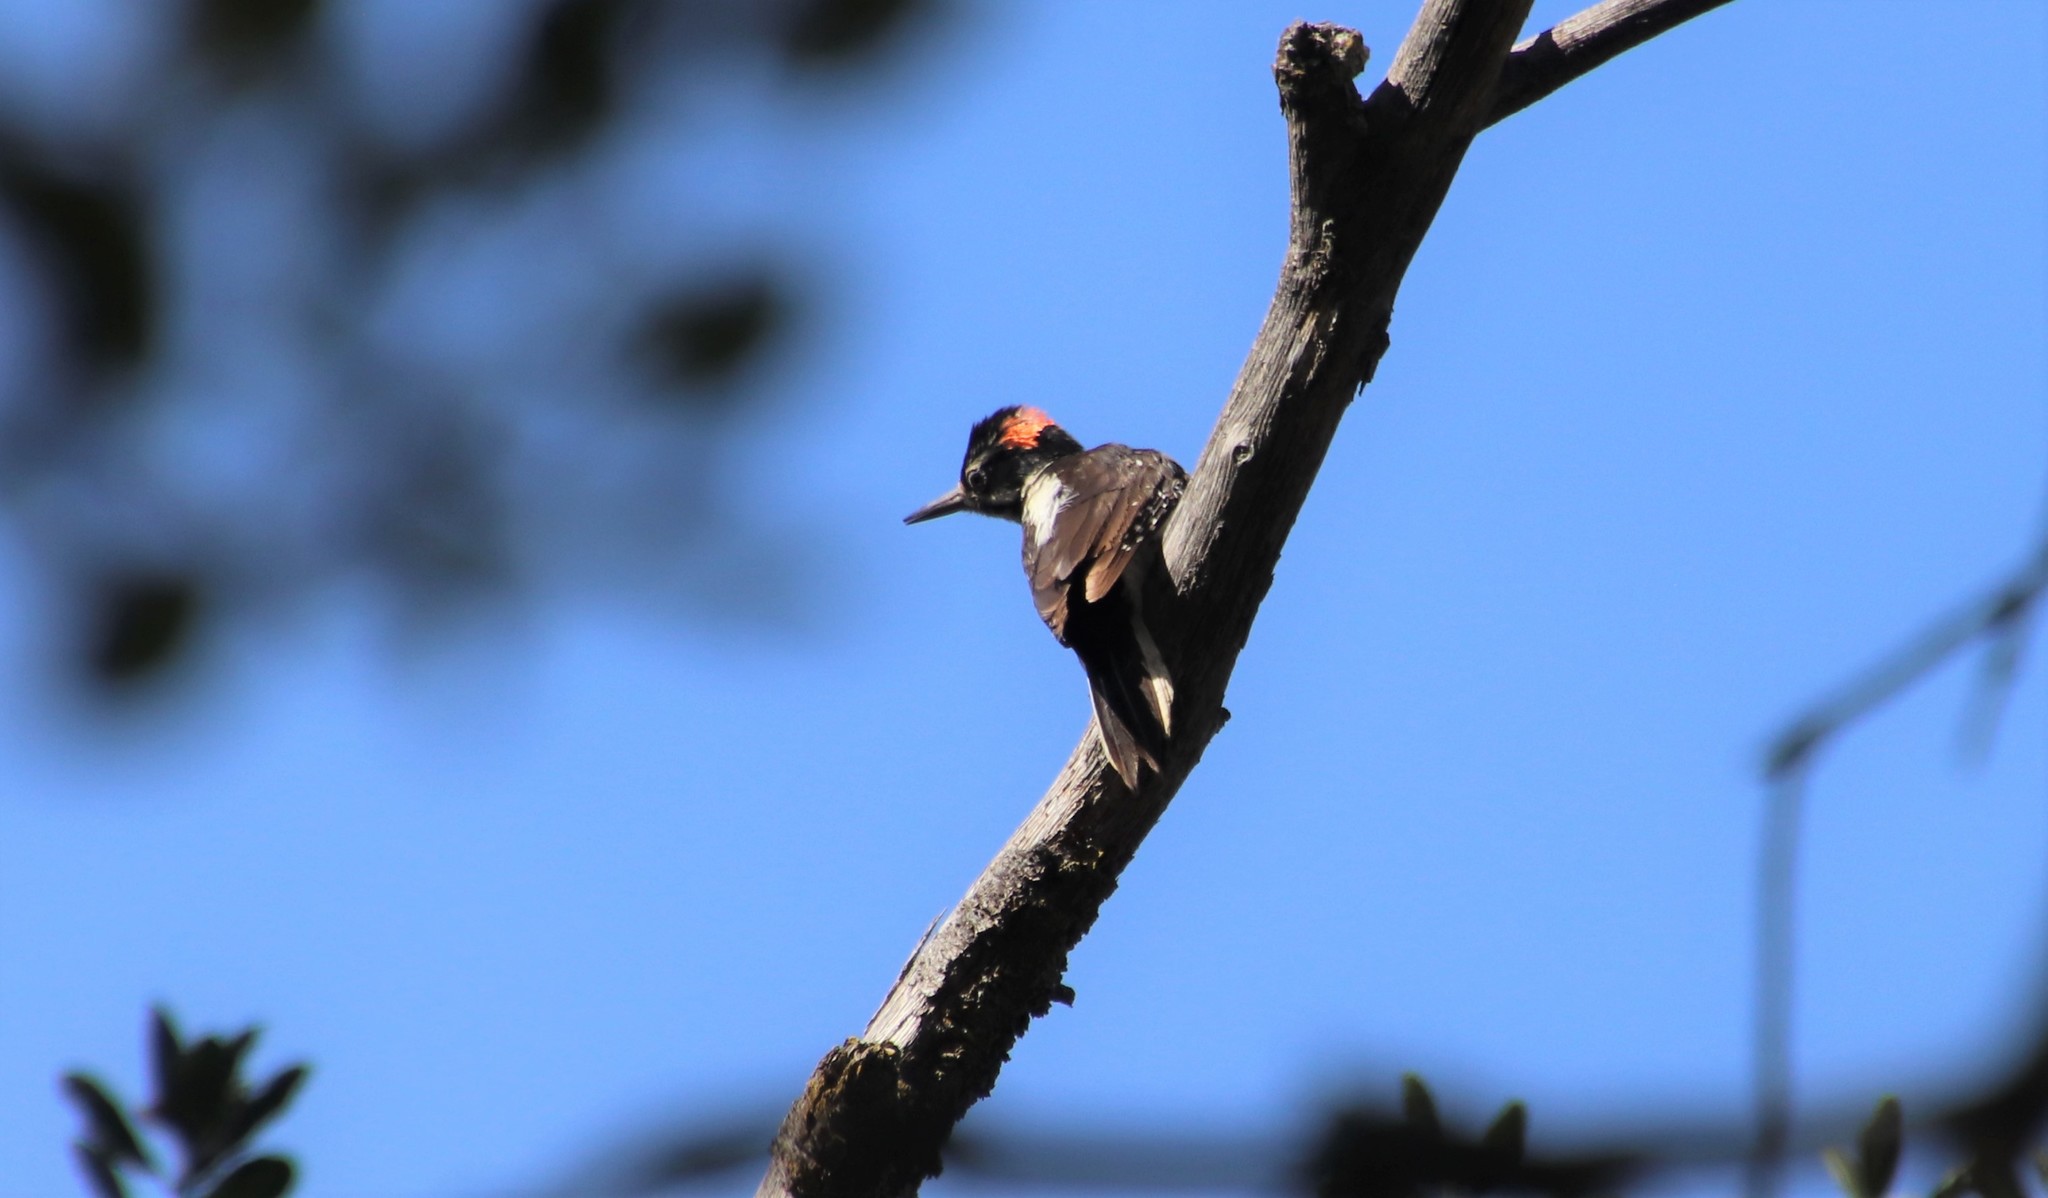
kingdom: Animalia
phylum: Chordata
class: Aves
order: Piciformes
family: Picidae
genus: Leuconotopicus
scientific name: Leuconotopicus villosus
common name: Hairy woodpecker
